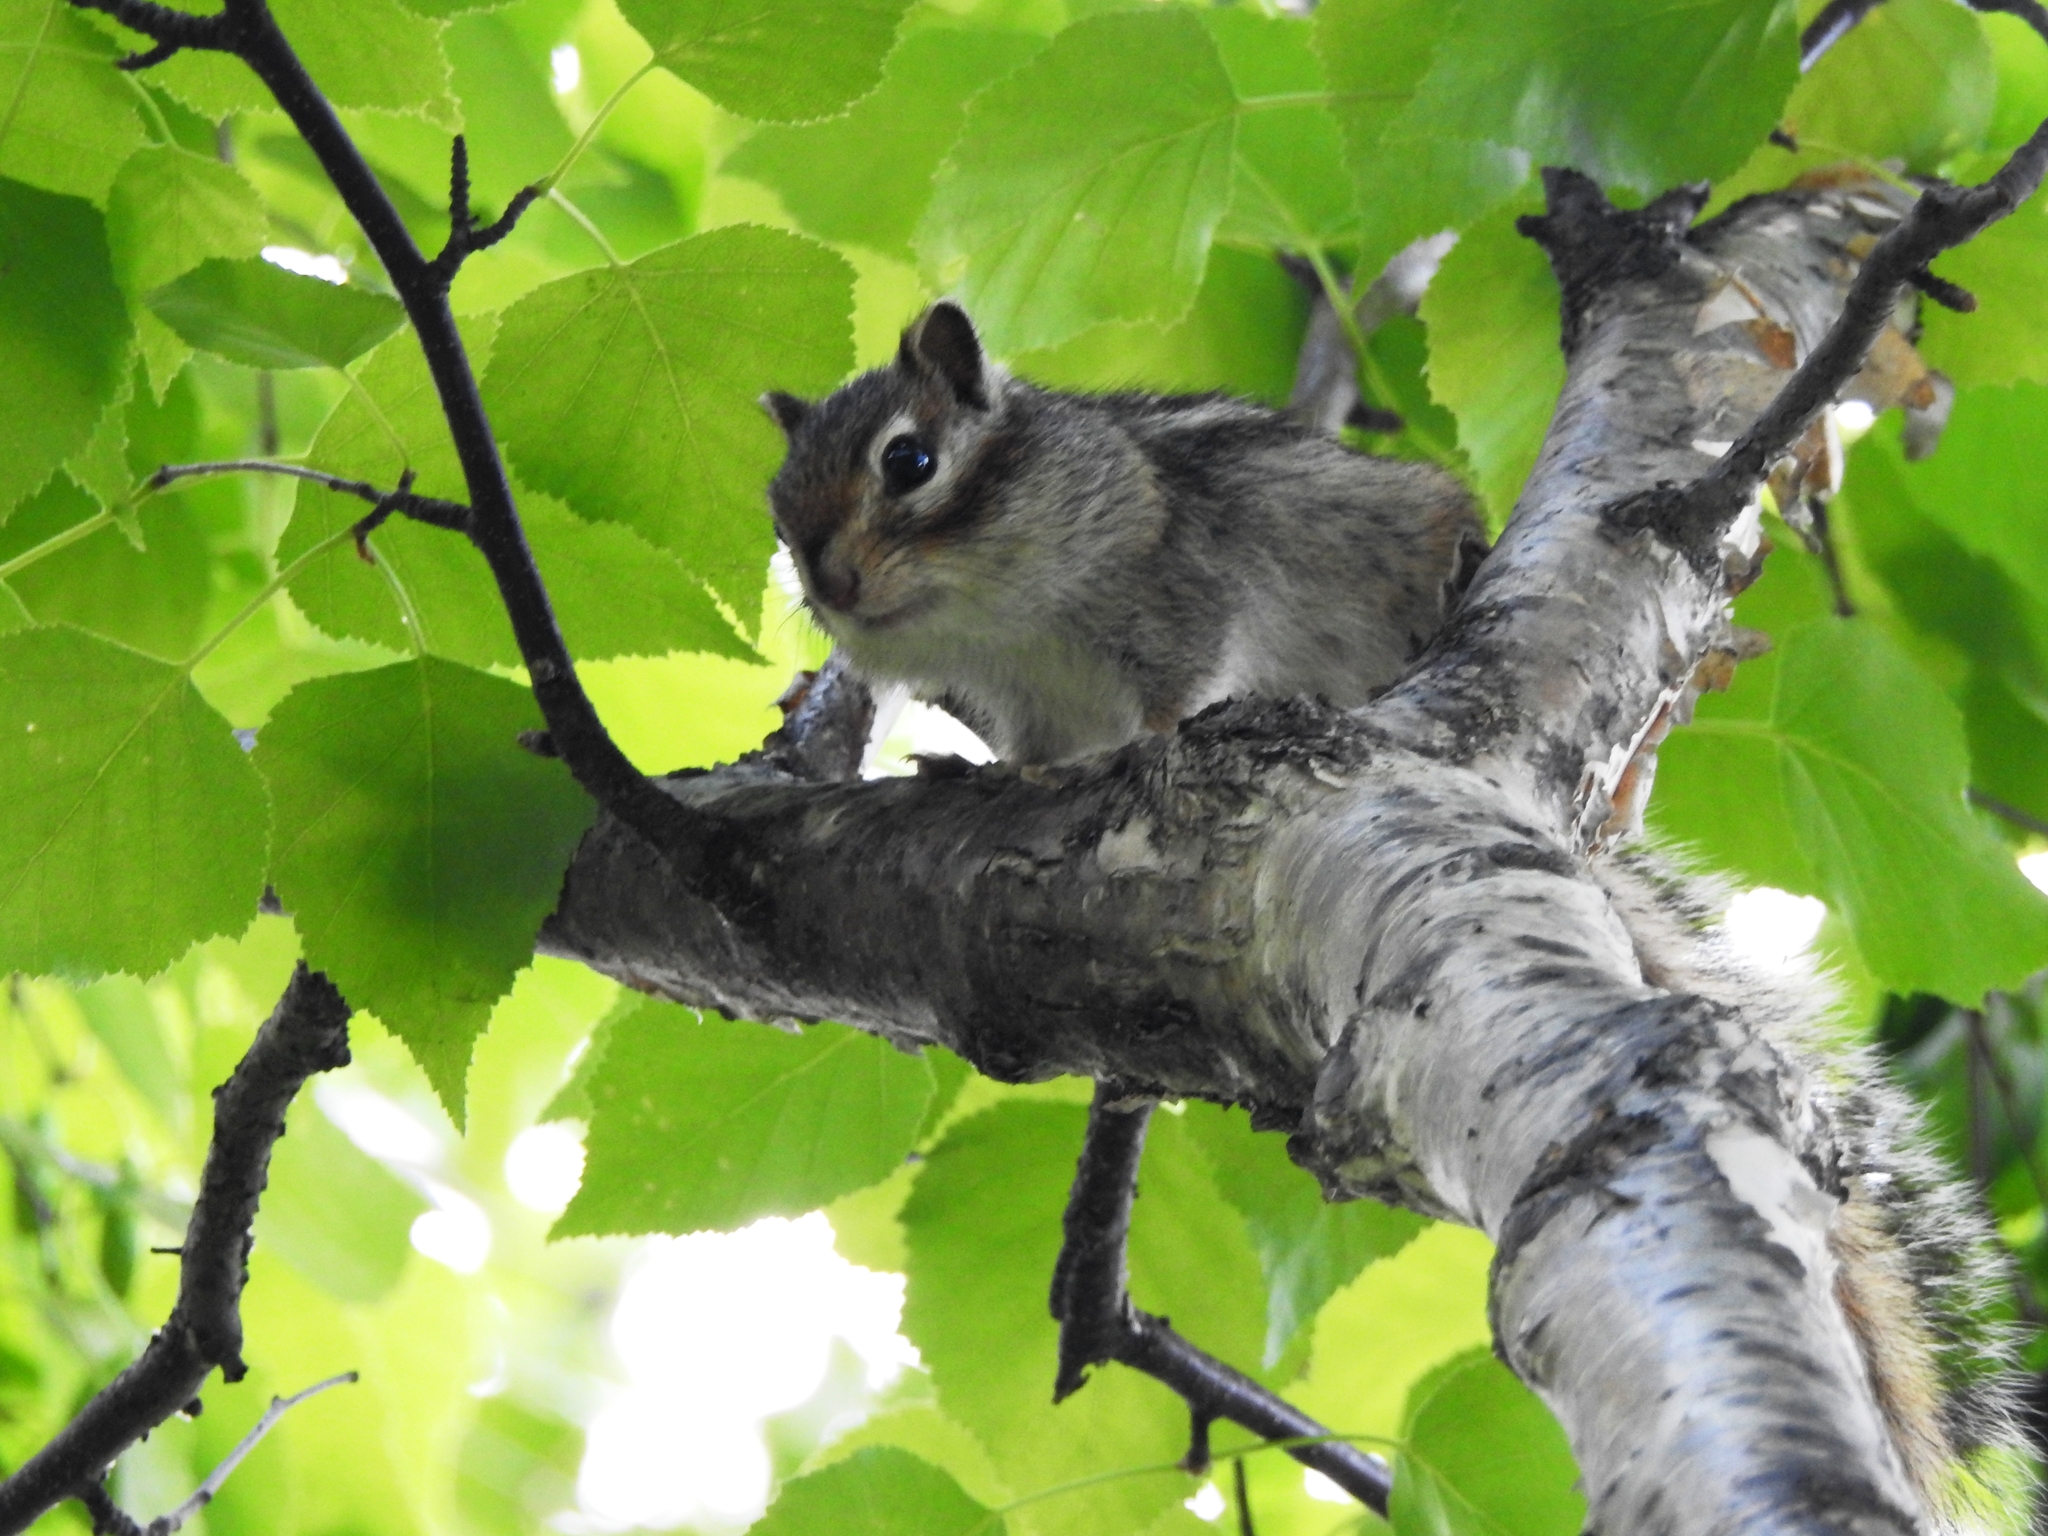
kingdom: Animalia
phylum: Chordata
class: Mammalia
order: Rodentia
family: Sciuridae
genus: Tamias
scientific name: Tamias sibiricus
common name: Siberian chipmunk
